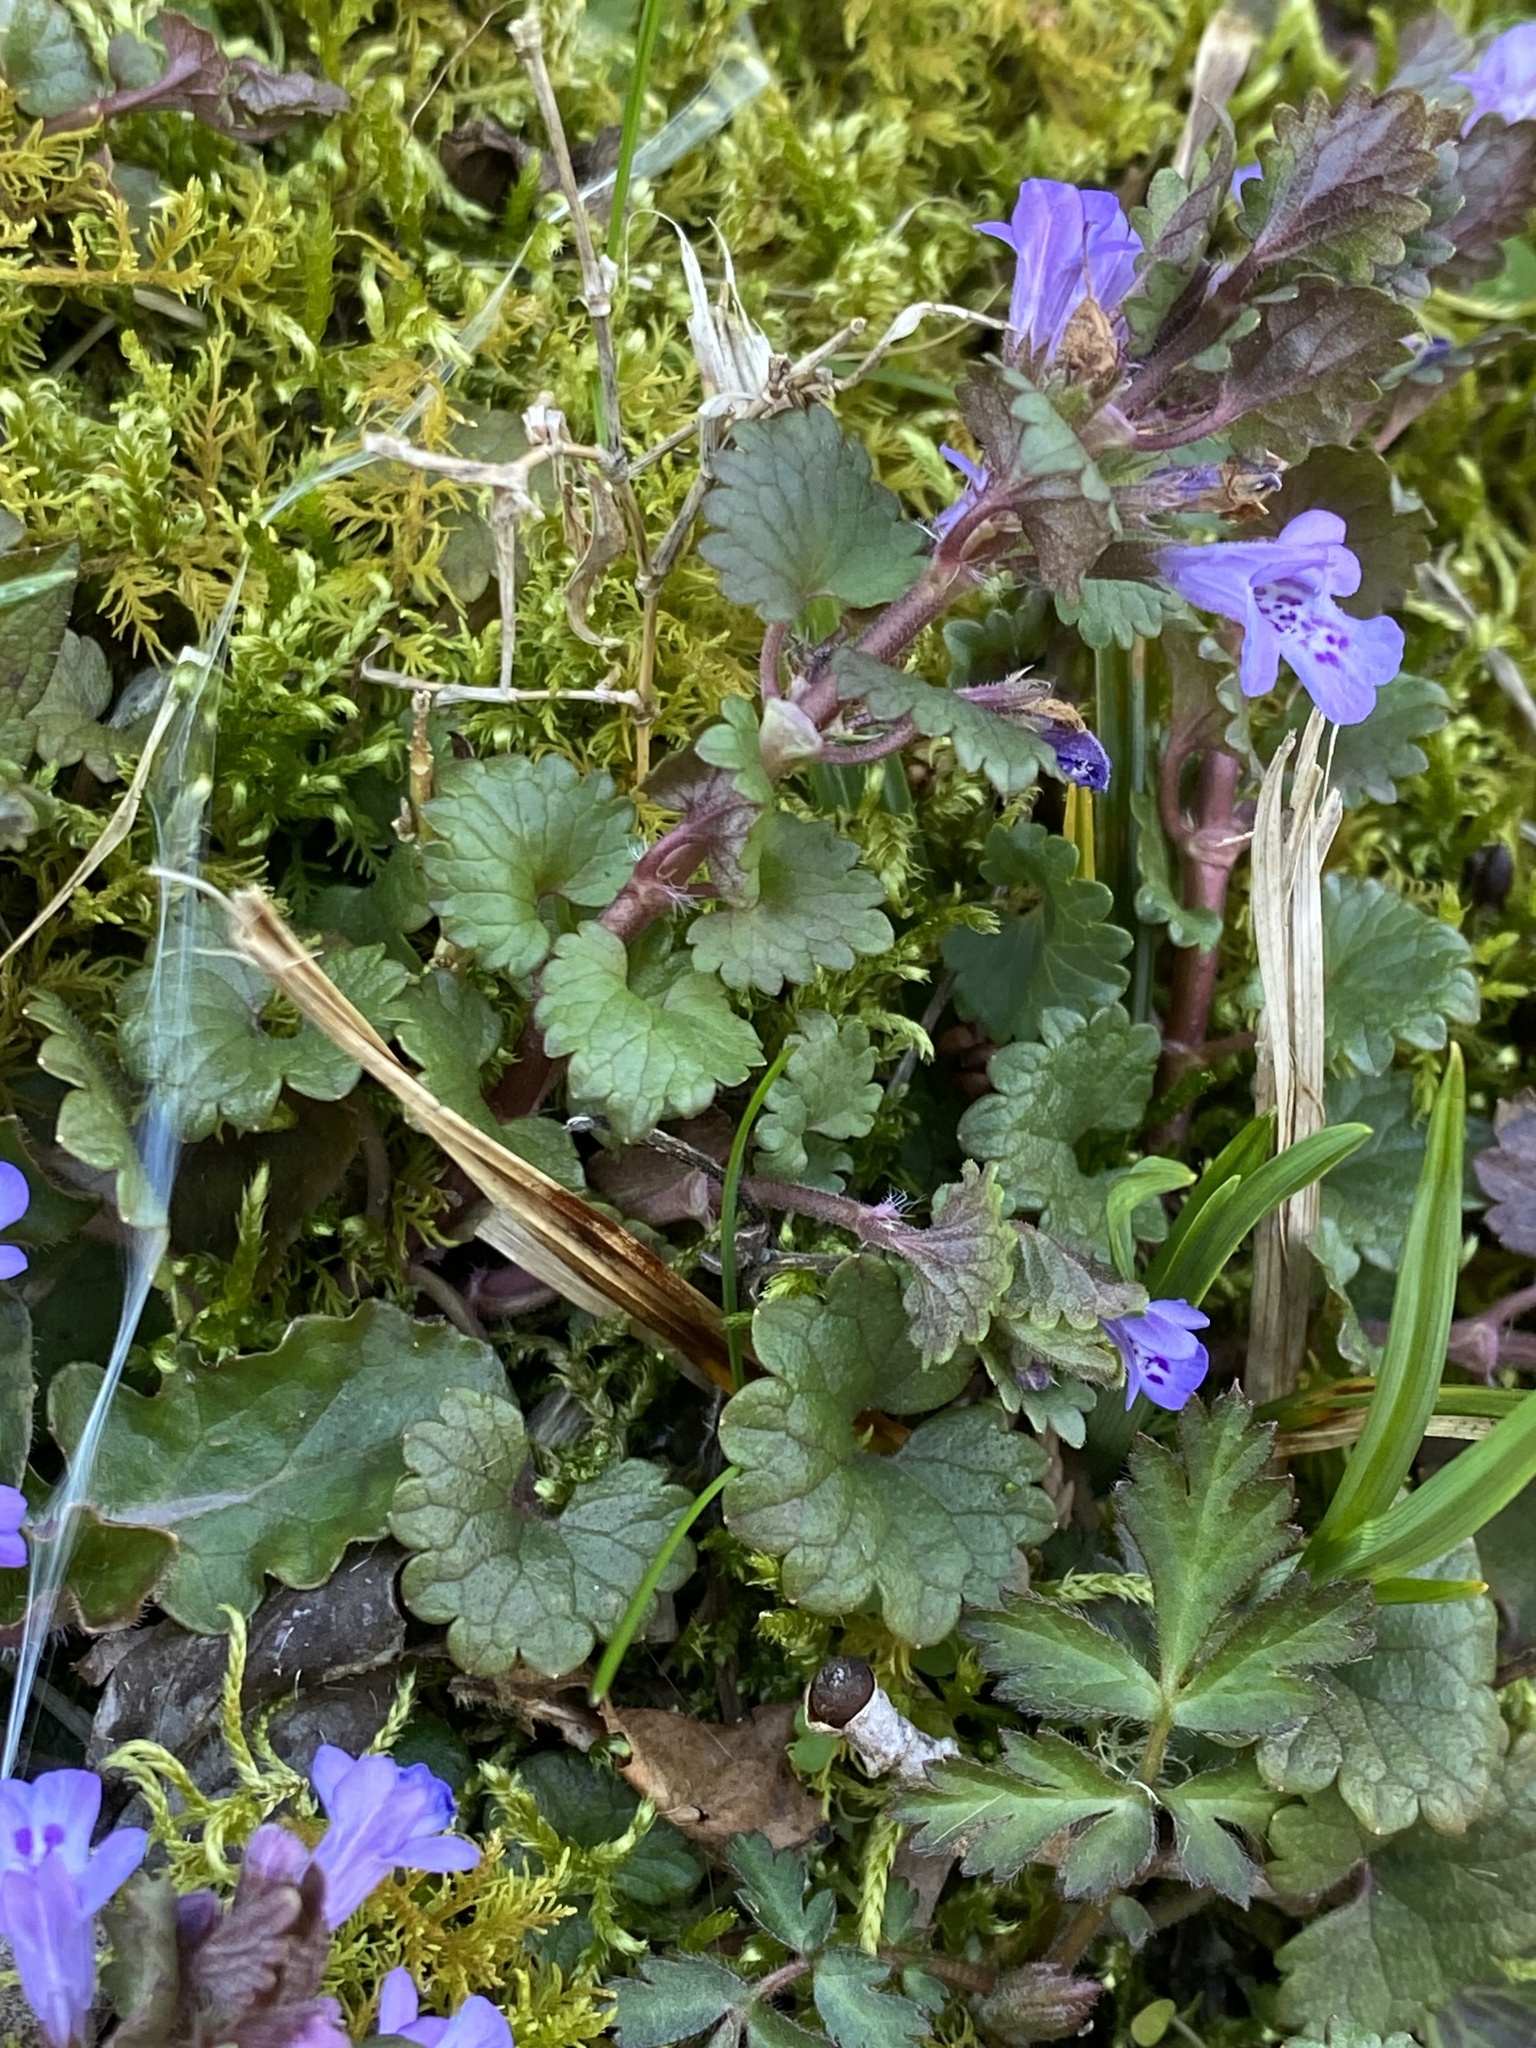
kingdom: Plantae
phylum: Tracheophyta
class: Magnoliopsida
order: Lamiales
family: Lamiaceae
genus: Glechoma
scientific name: Glechoma hederacea
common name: Ground ivy
